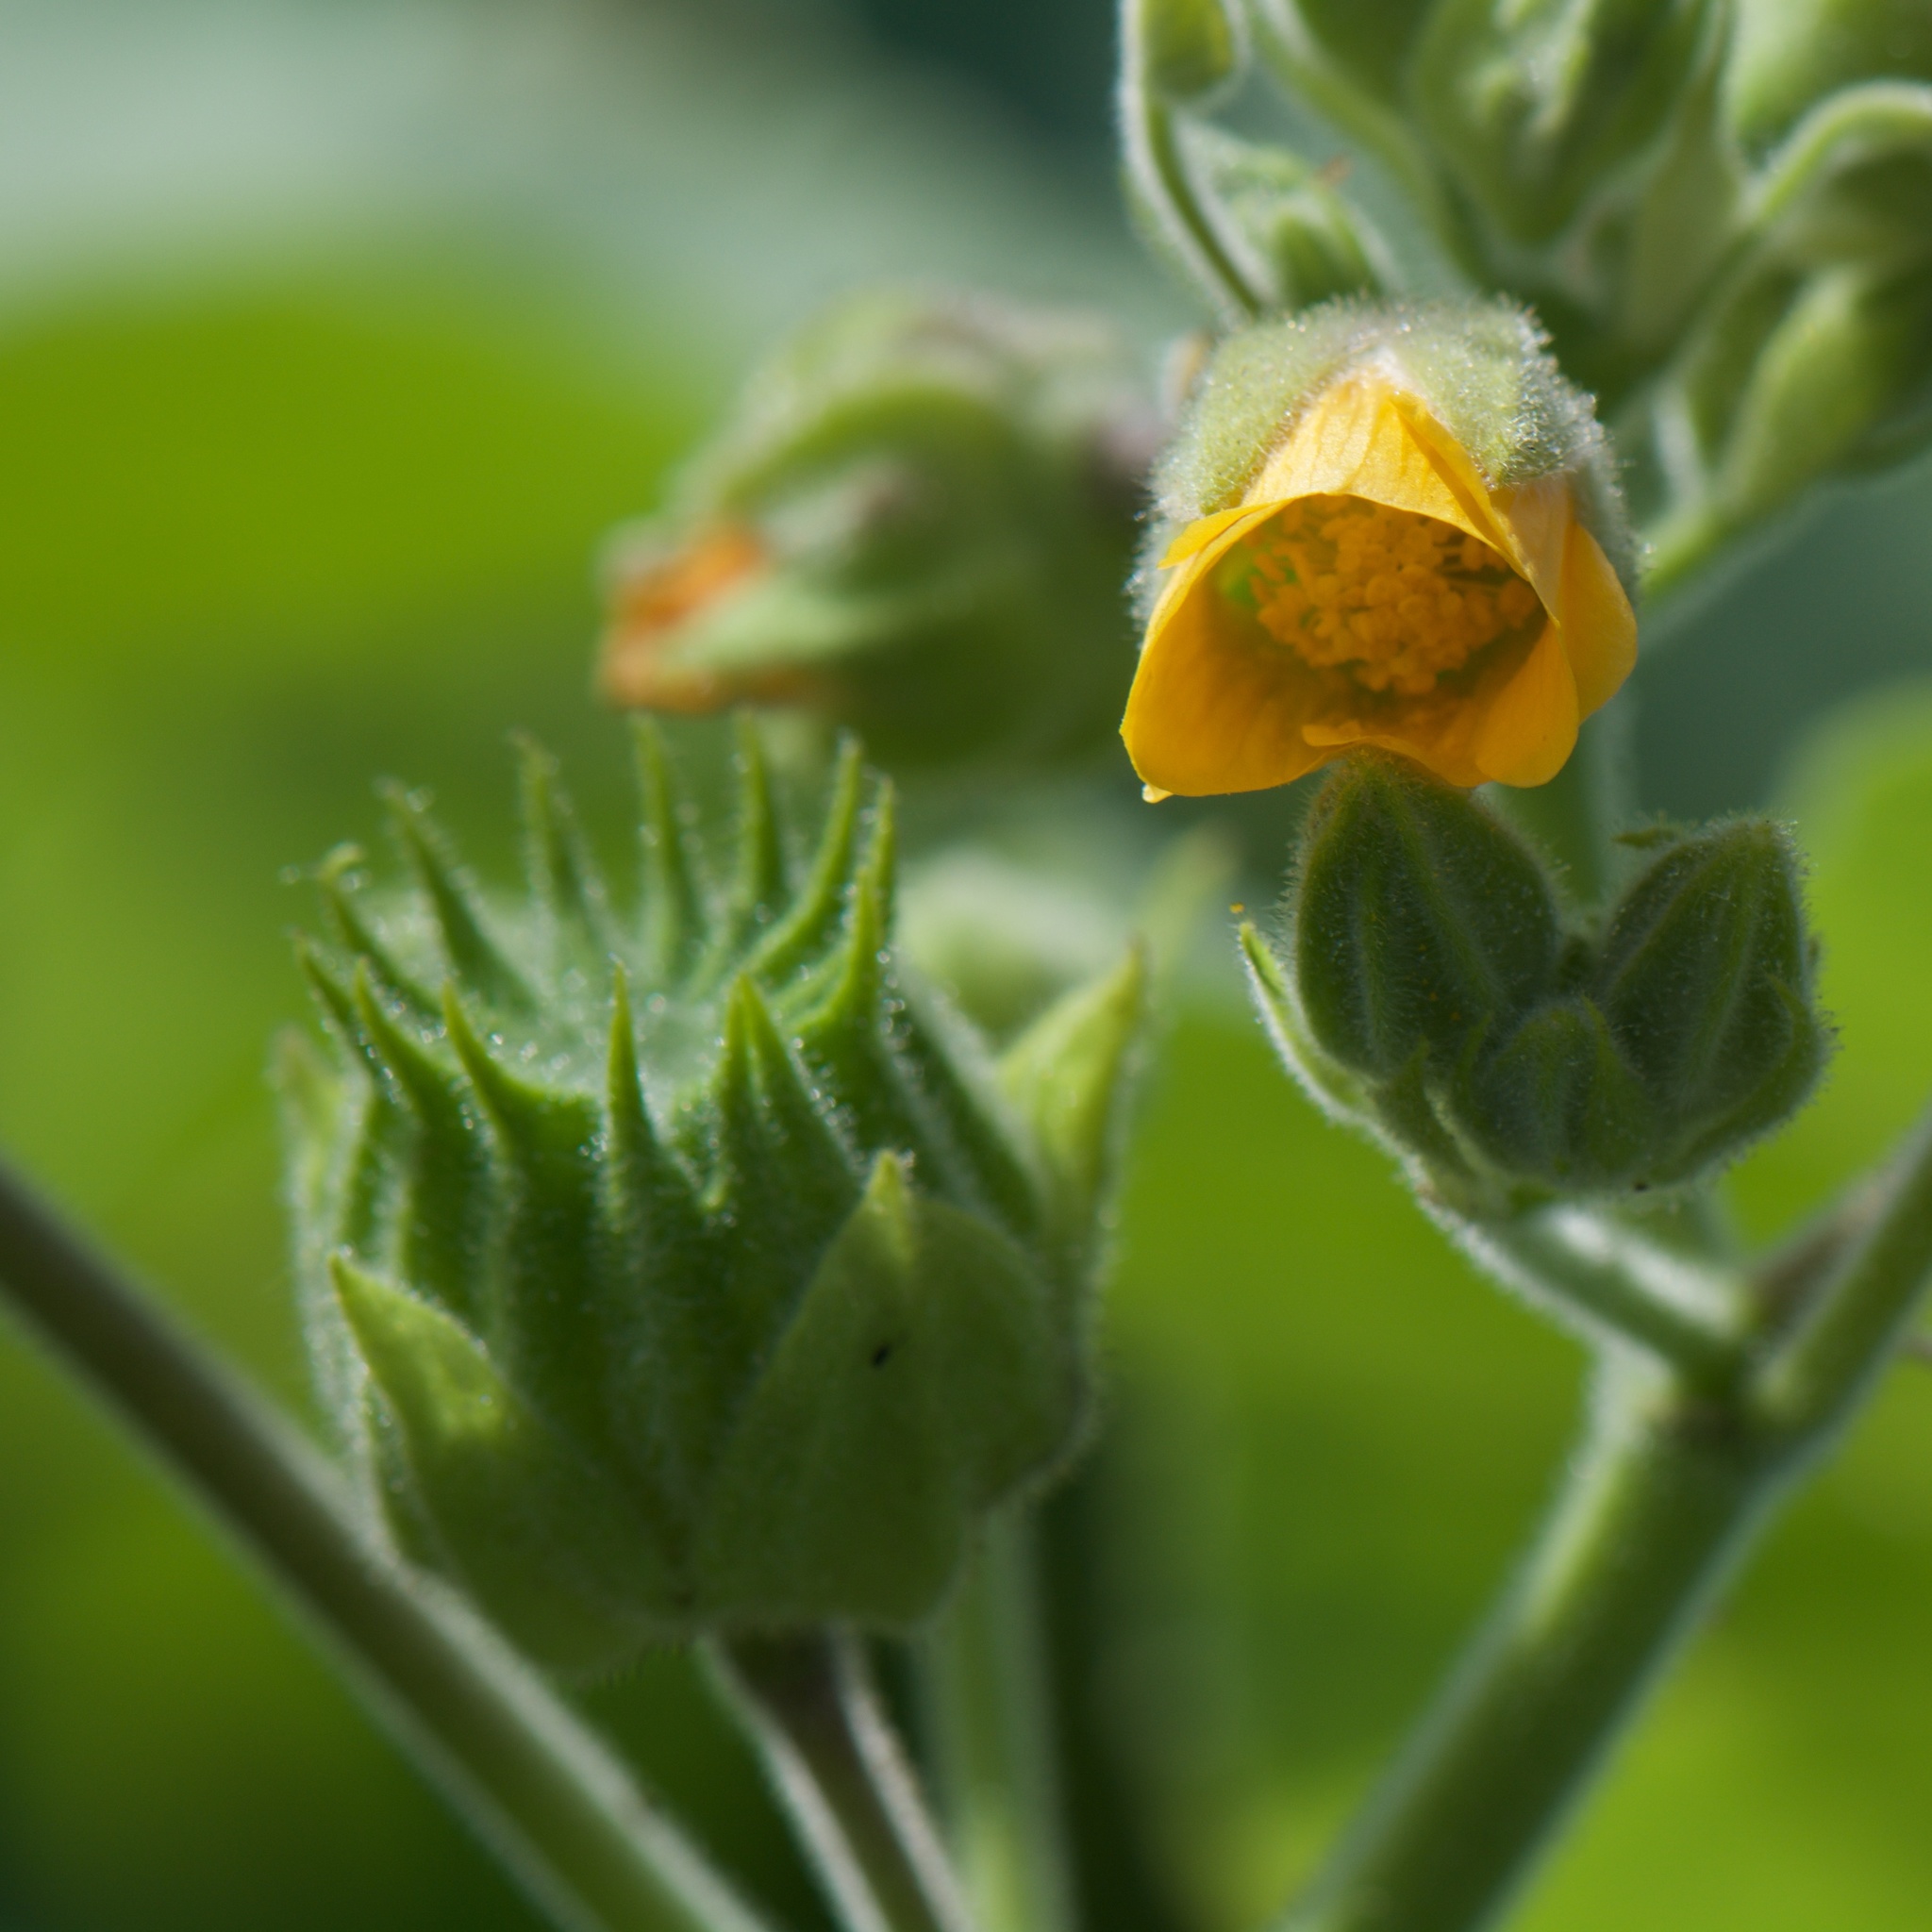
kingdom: Plantae
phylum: Tracheophyta
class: Magnoliopsida
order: Malvales
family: Malvaceae
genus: Abutilon
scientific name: Abutilon theophrasti
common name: Velvetleaf
